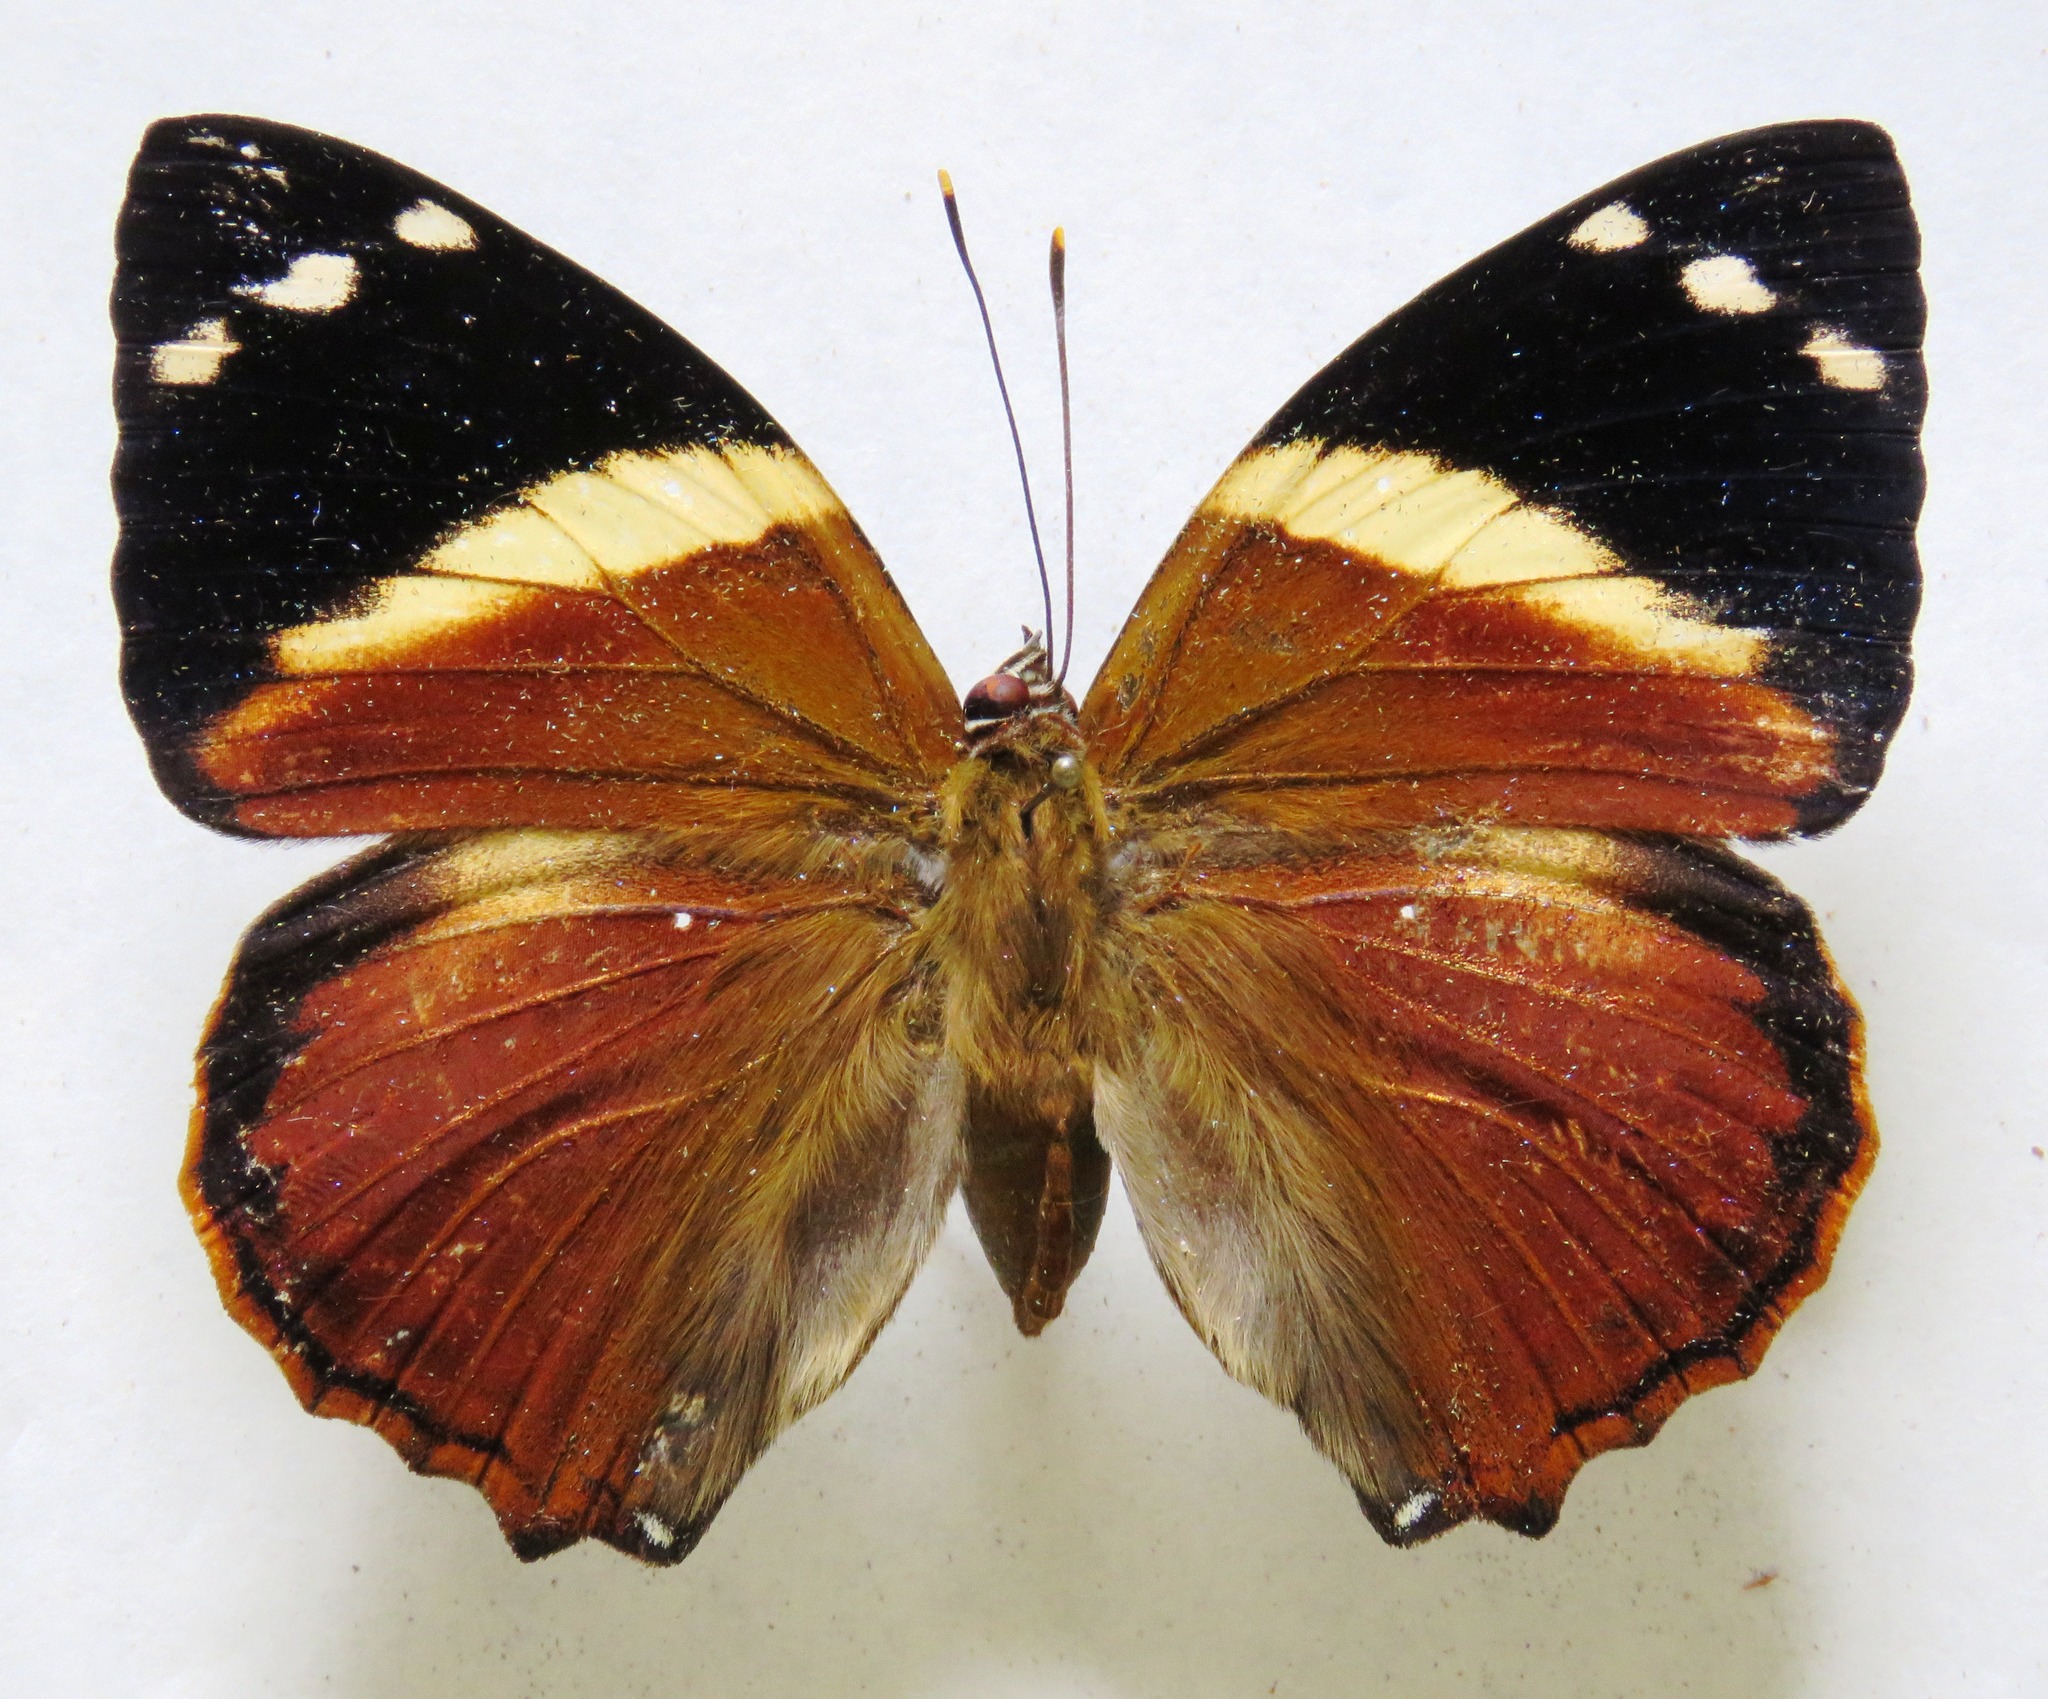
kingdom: Animalia
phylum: Arthropoda
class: Insecta
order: Lepidoptera
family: Nymphalidae
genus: Smyrna
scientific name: Smyrna blomfildia
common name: Blomfild's beauty
